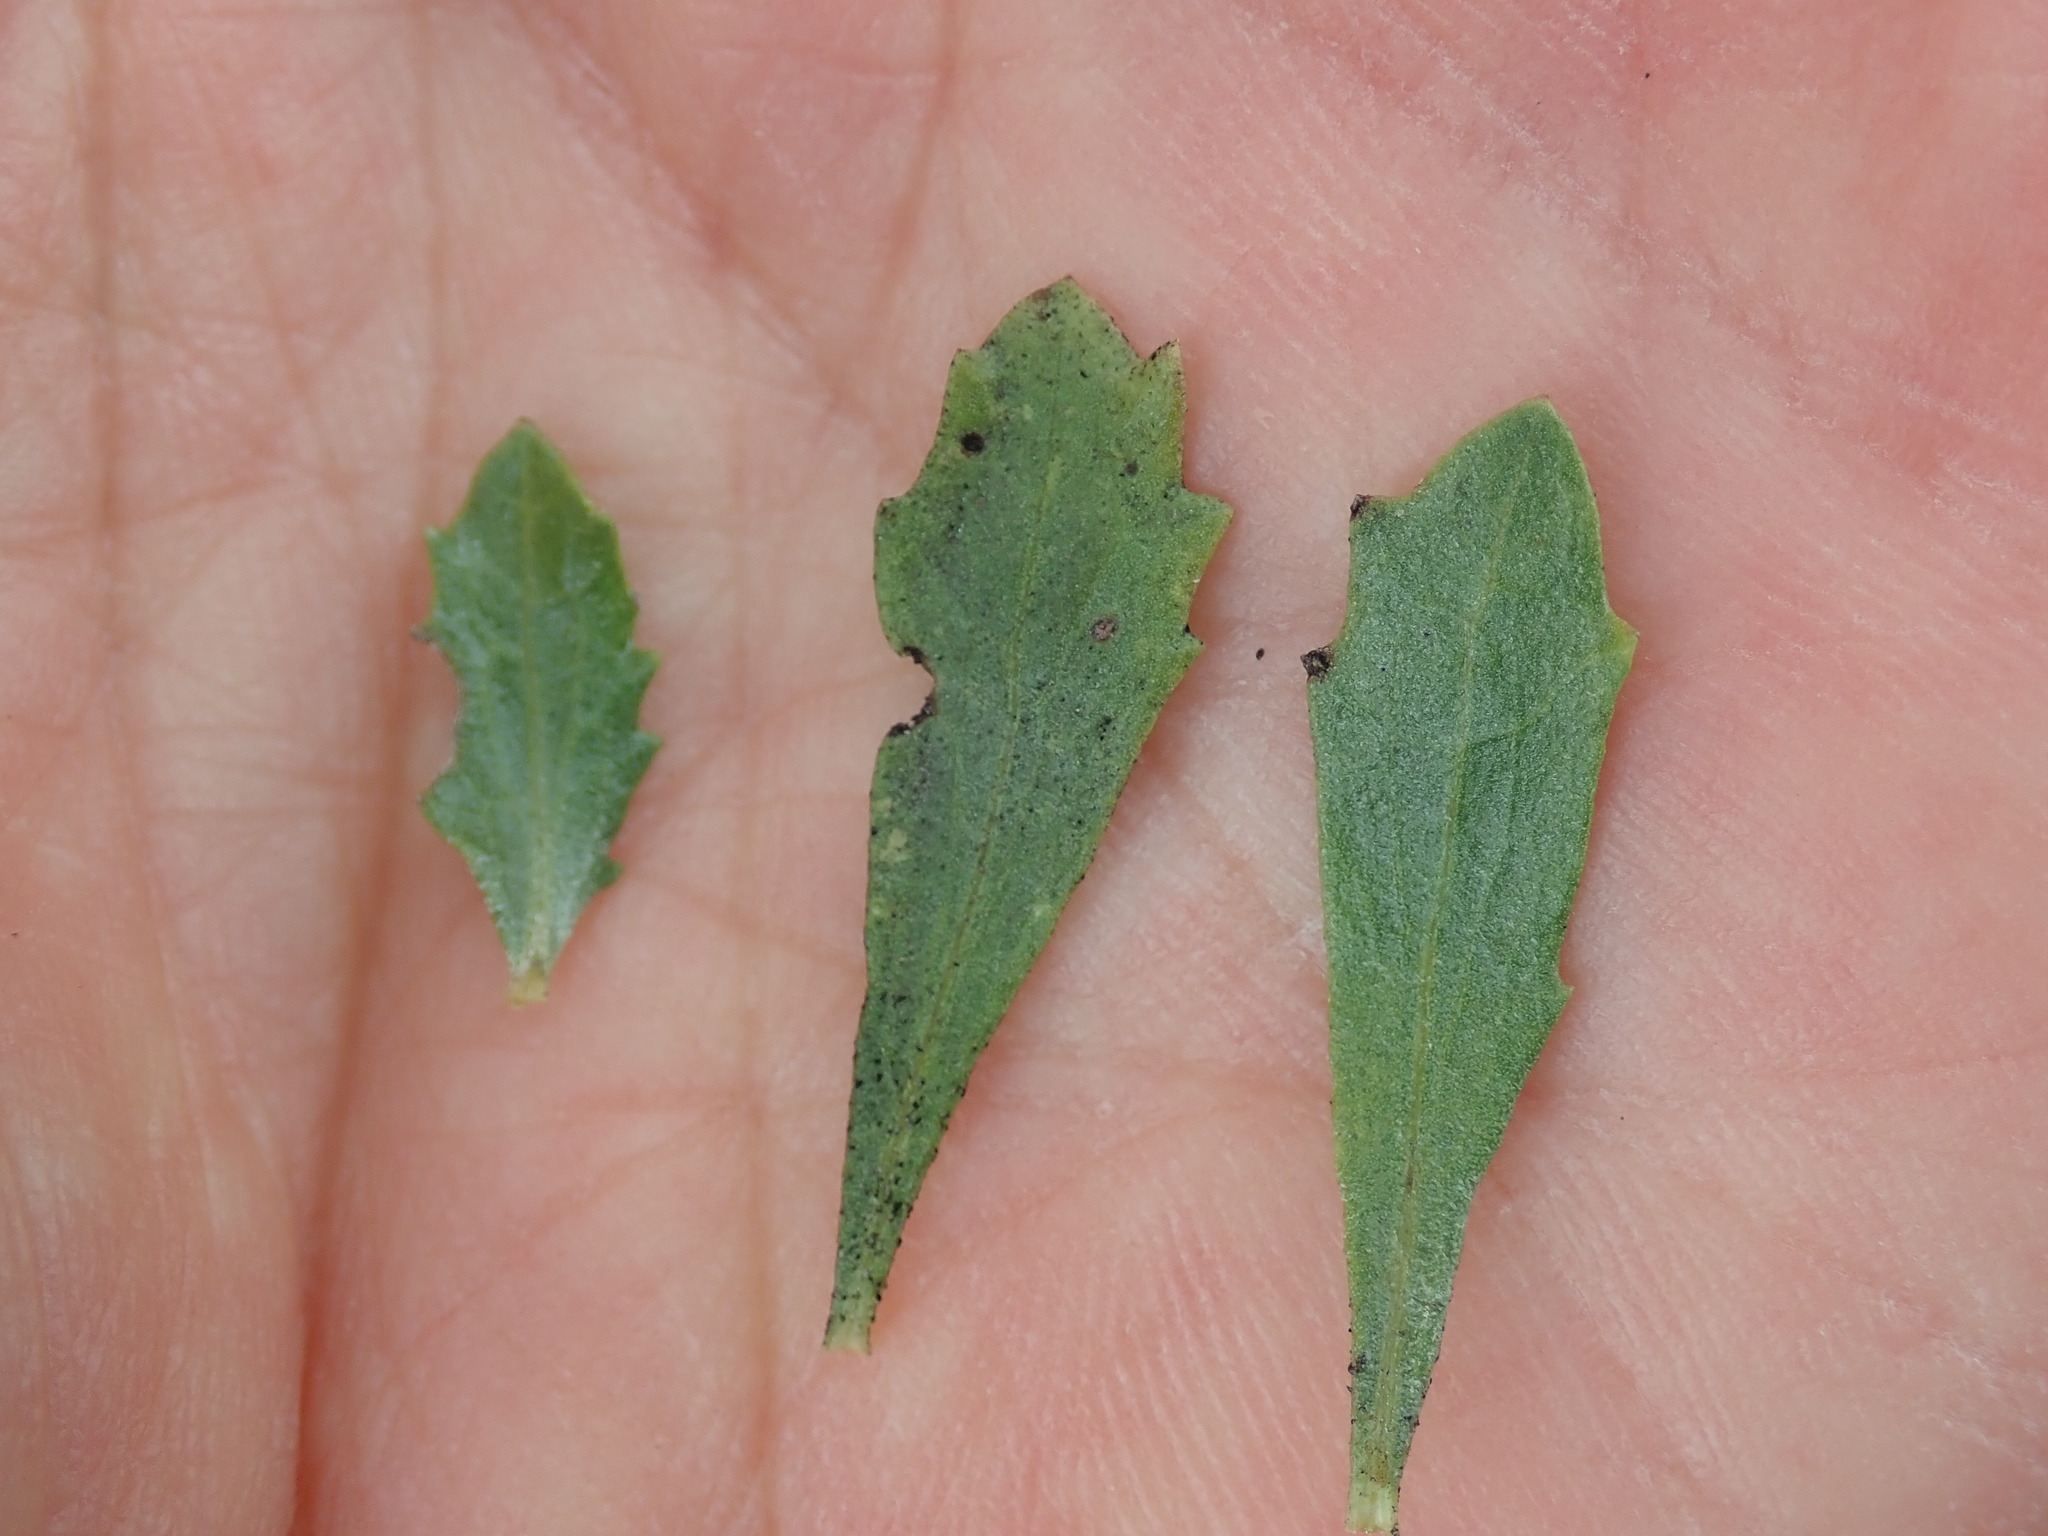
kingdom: Plantae
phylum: Tracheophyta
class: Magnoliopsida
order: Asterales
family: Asteraceae
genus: Baccharis
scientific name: Baccharis pilularis
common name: Coyotebrush
